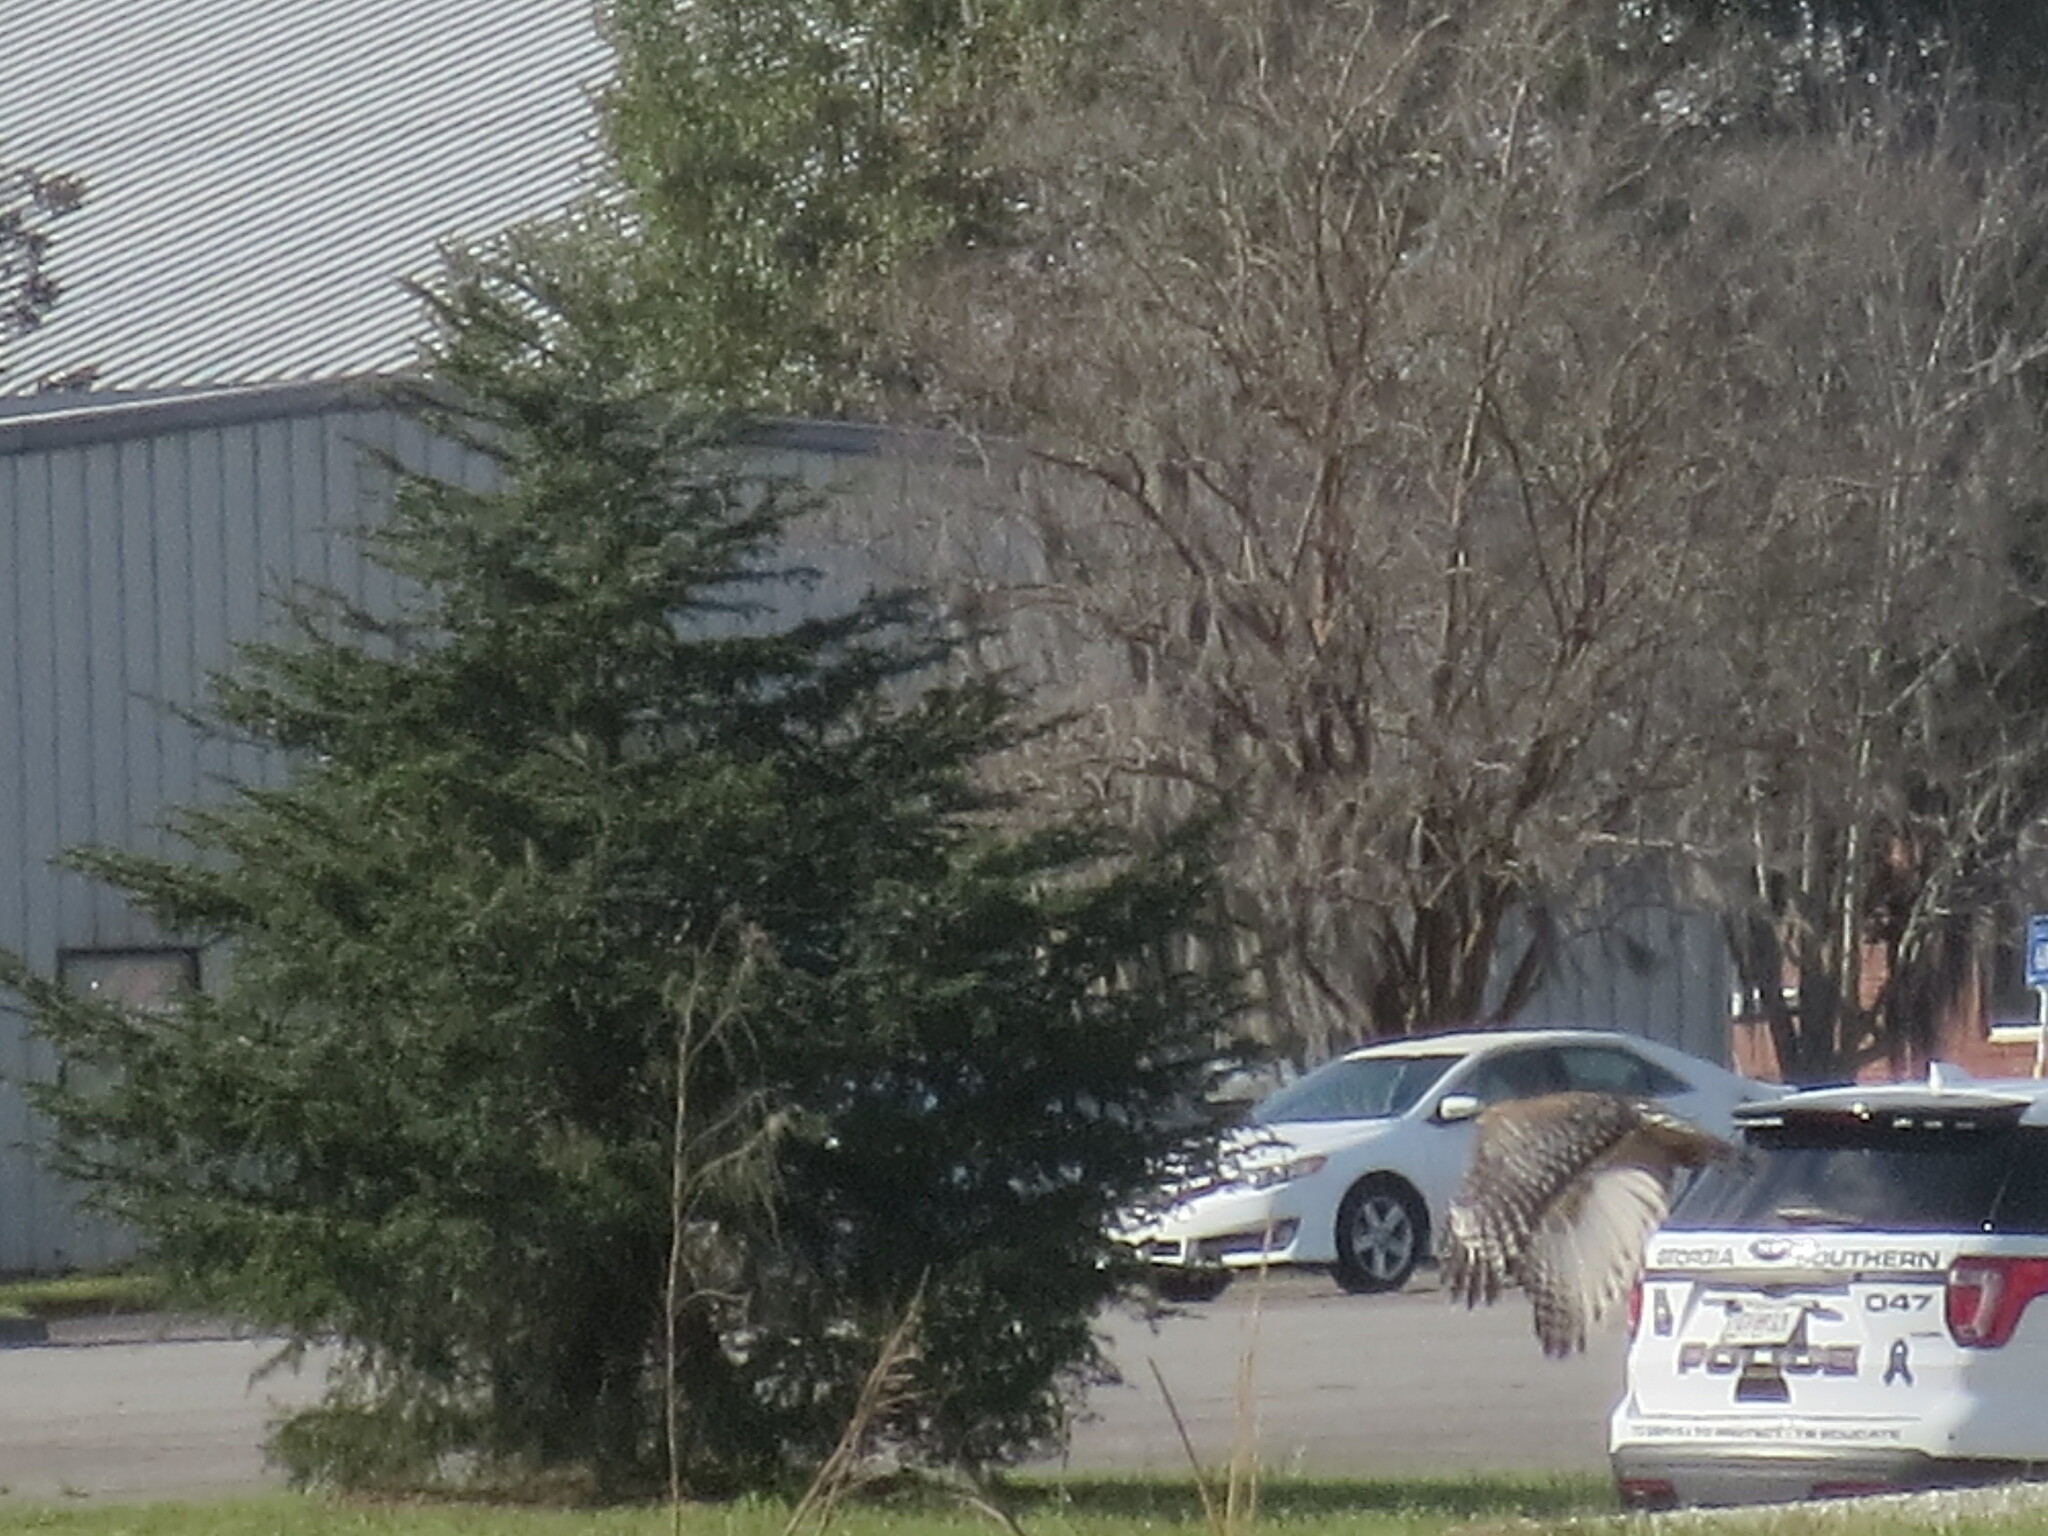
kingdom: Animalia
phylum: Chordata
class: Aves
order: Accipitriformes
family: Accipitridae
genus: Buteo
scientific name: Buteo lineatus
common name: Red-shouldered hawk
